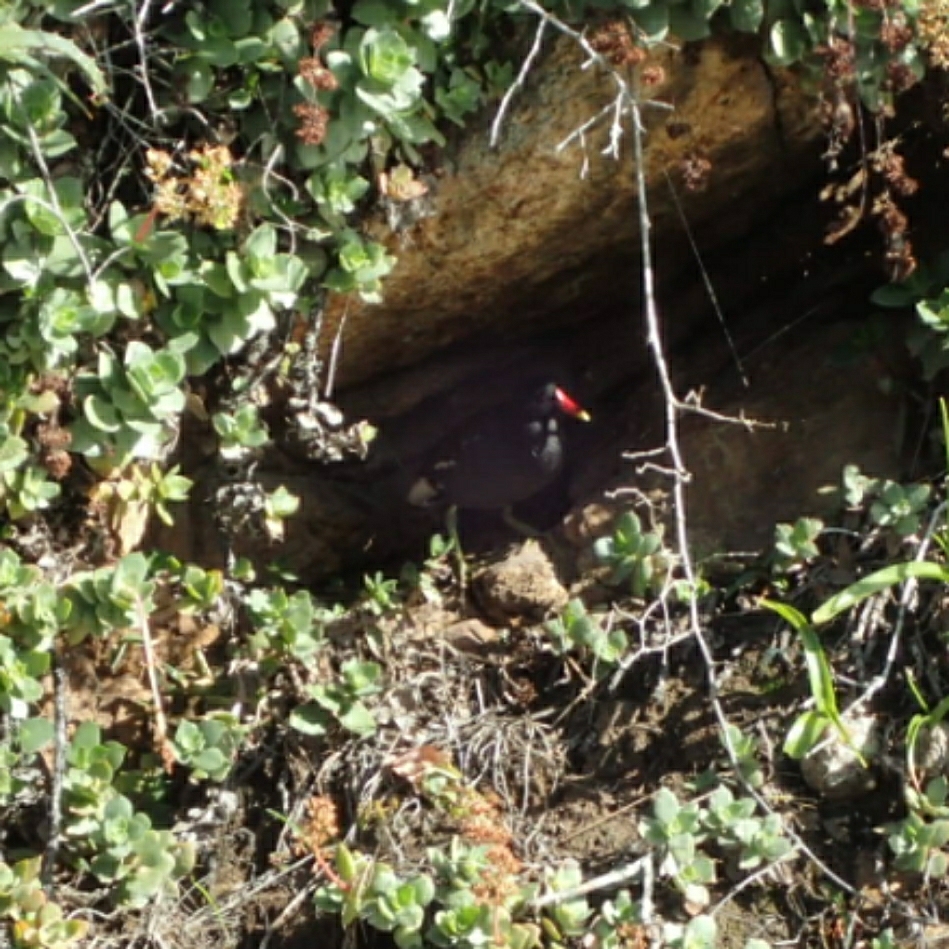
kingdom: Animalia
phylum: Chordata
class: Aves
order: Gruiformes
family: Rallidae
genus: Gallinula
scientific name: Gallinula chloropus
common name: Common moorhen
